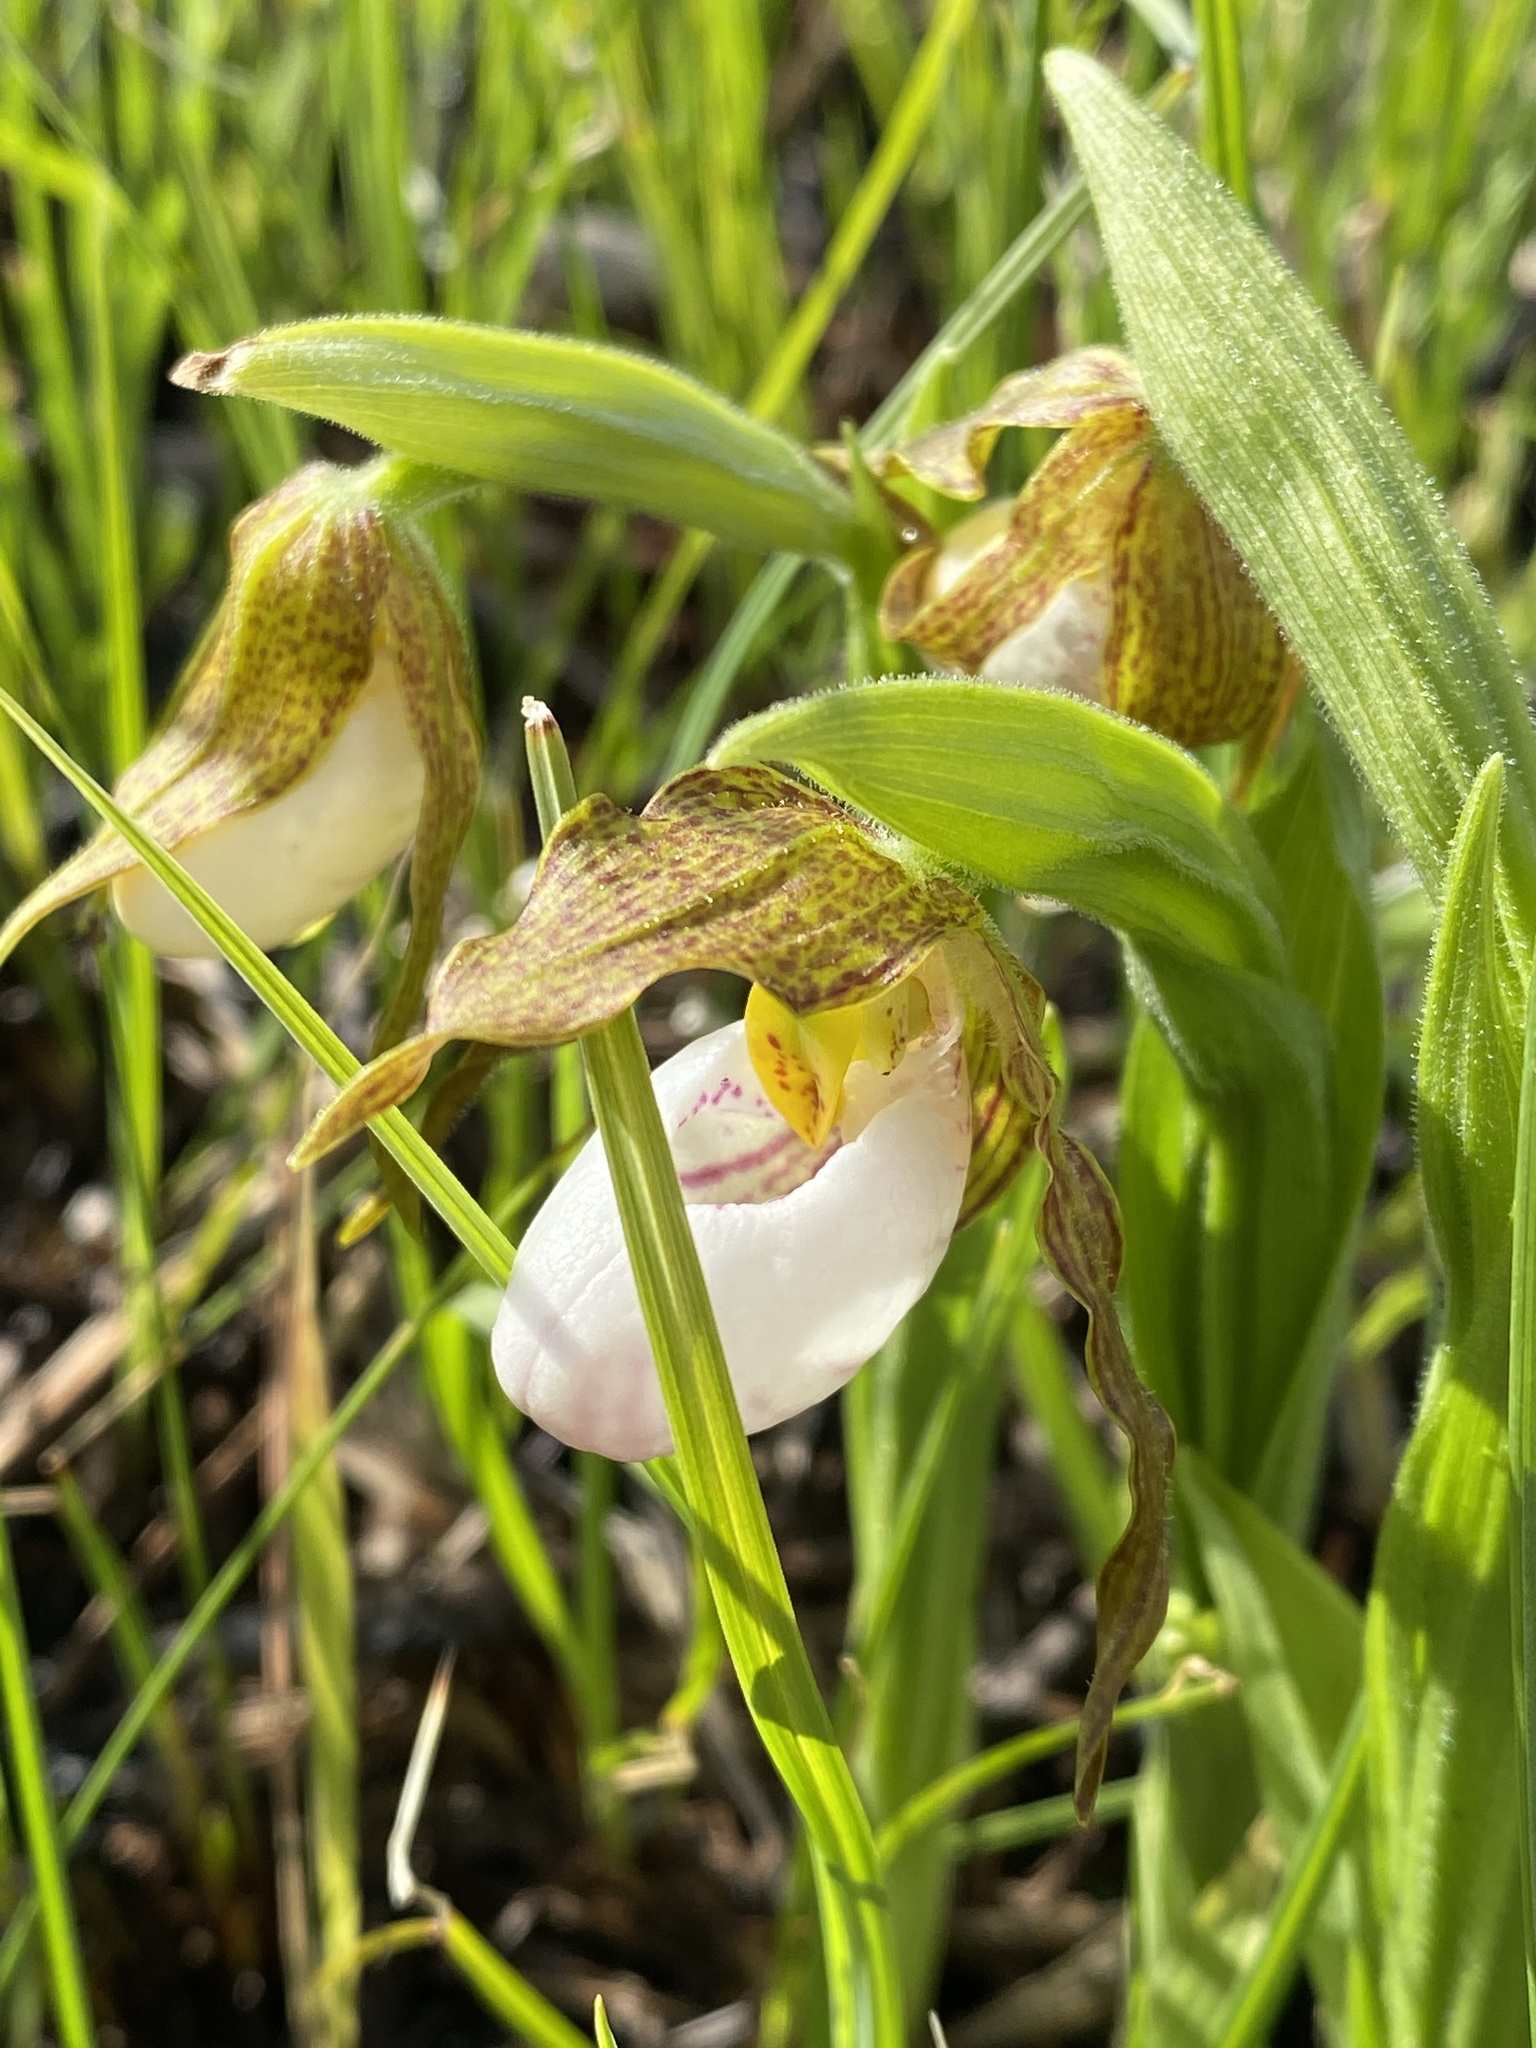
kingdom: Plantae
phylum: Tracheophyta
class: Liliopsida
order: Asparagales
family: Orchidaceae
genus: Cypripedium
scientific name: Cypripedium candidum
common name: White lady's-slipper
